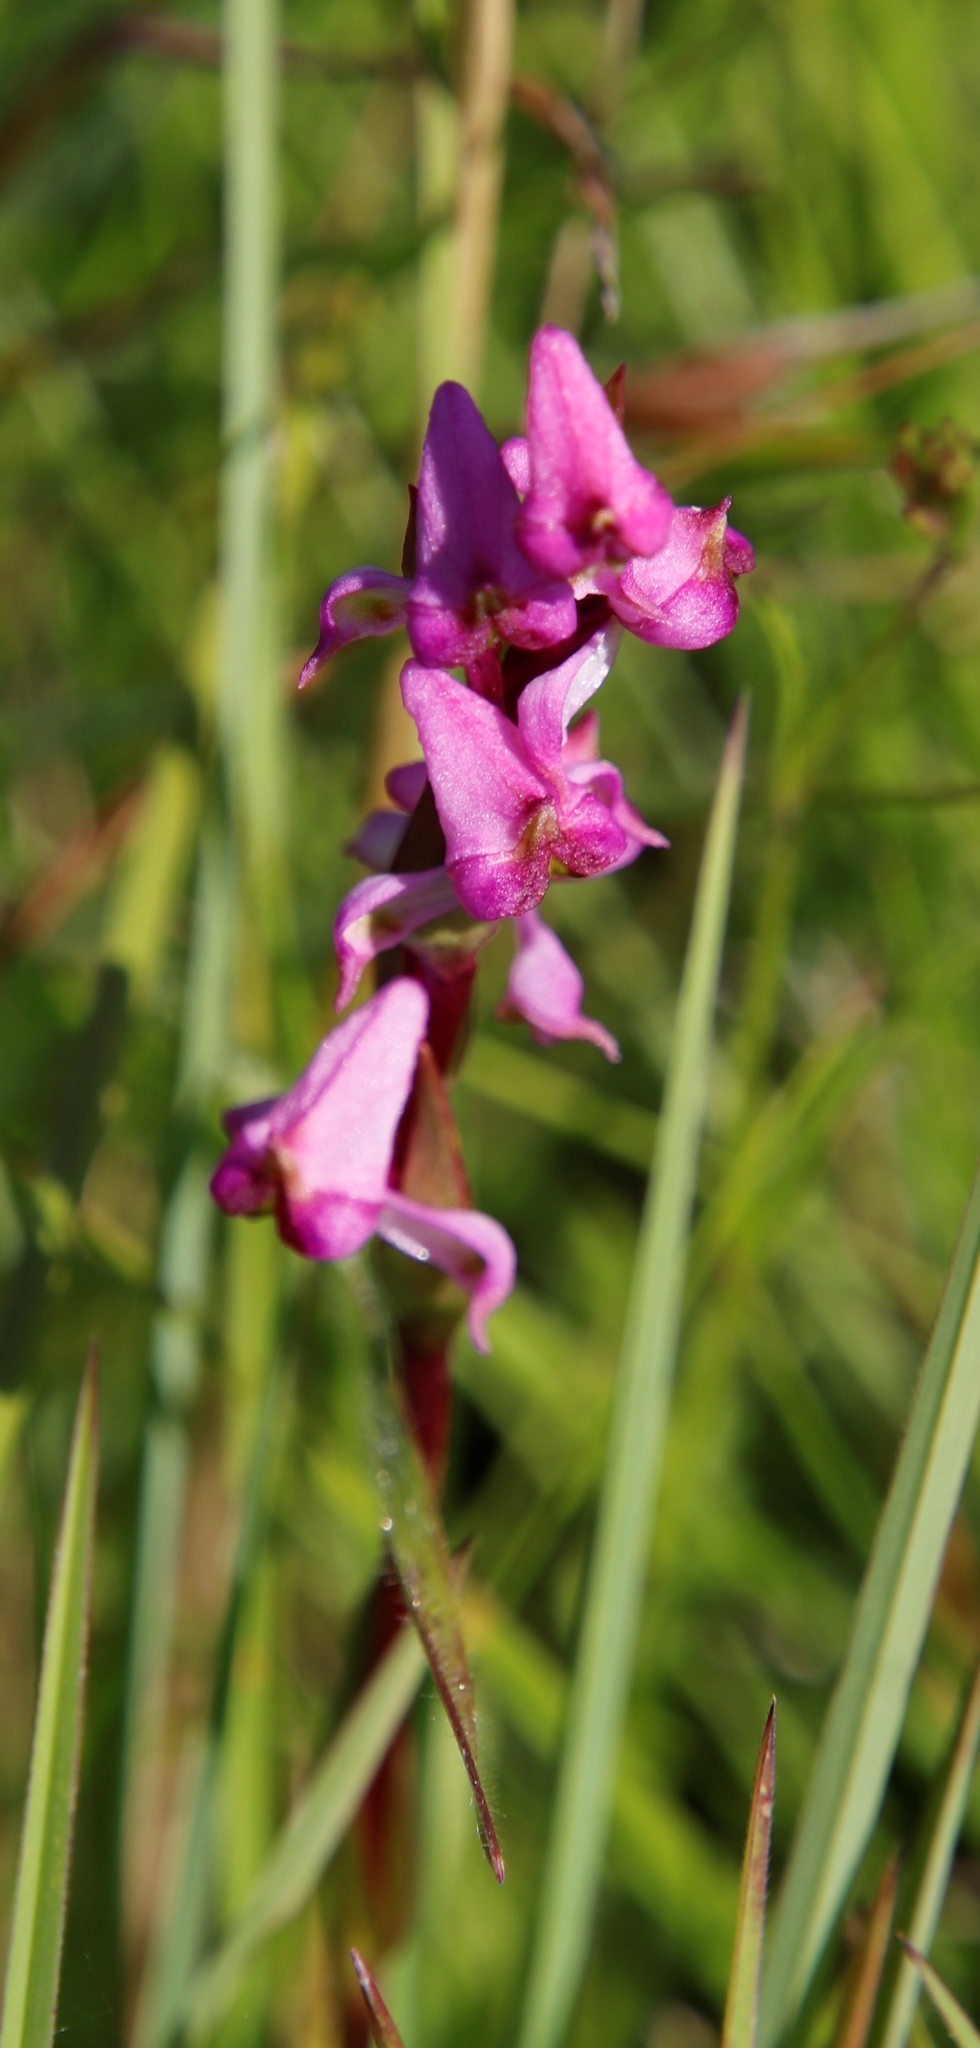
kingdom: Plantae
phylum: Tracheophyta
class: Liliopsida
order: Asparagales
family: Orchidaceae
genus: Disperis
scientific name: Disperis tysonii
